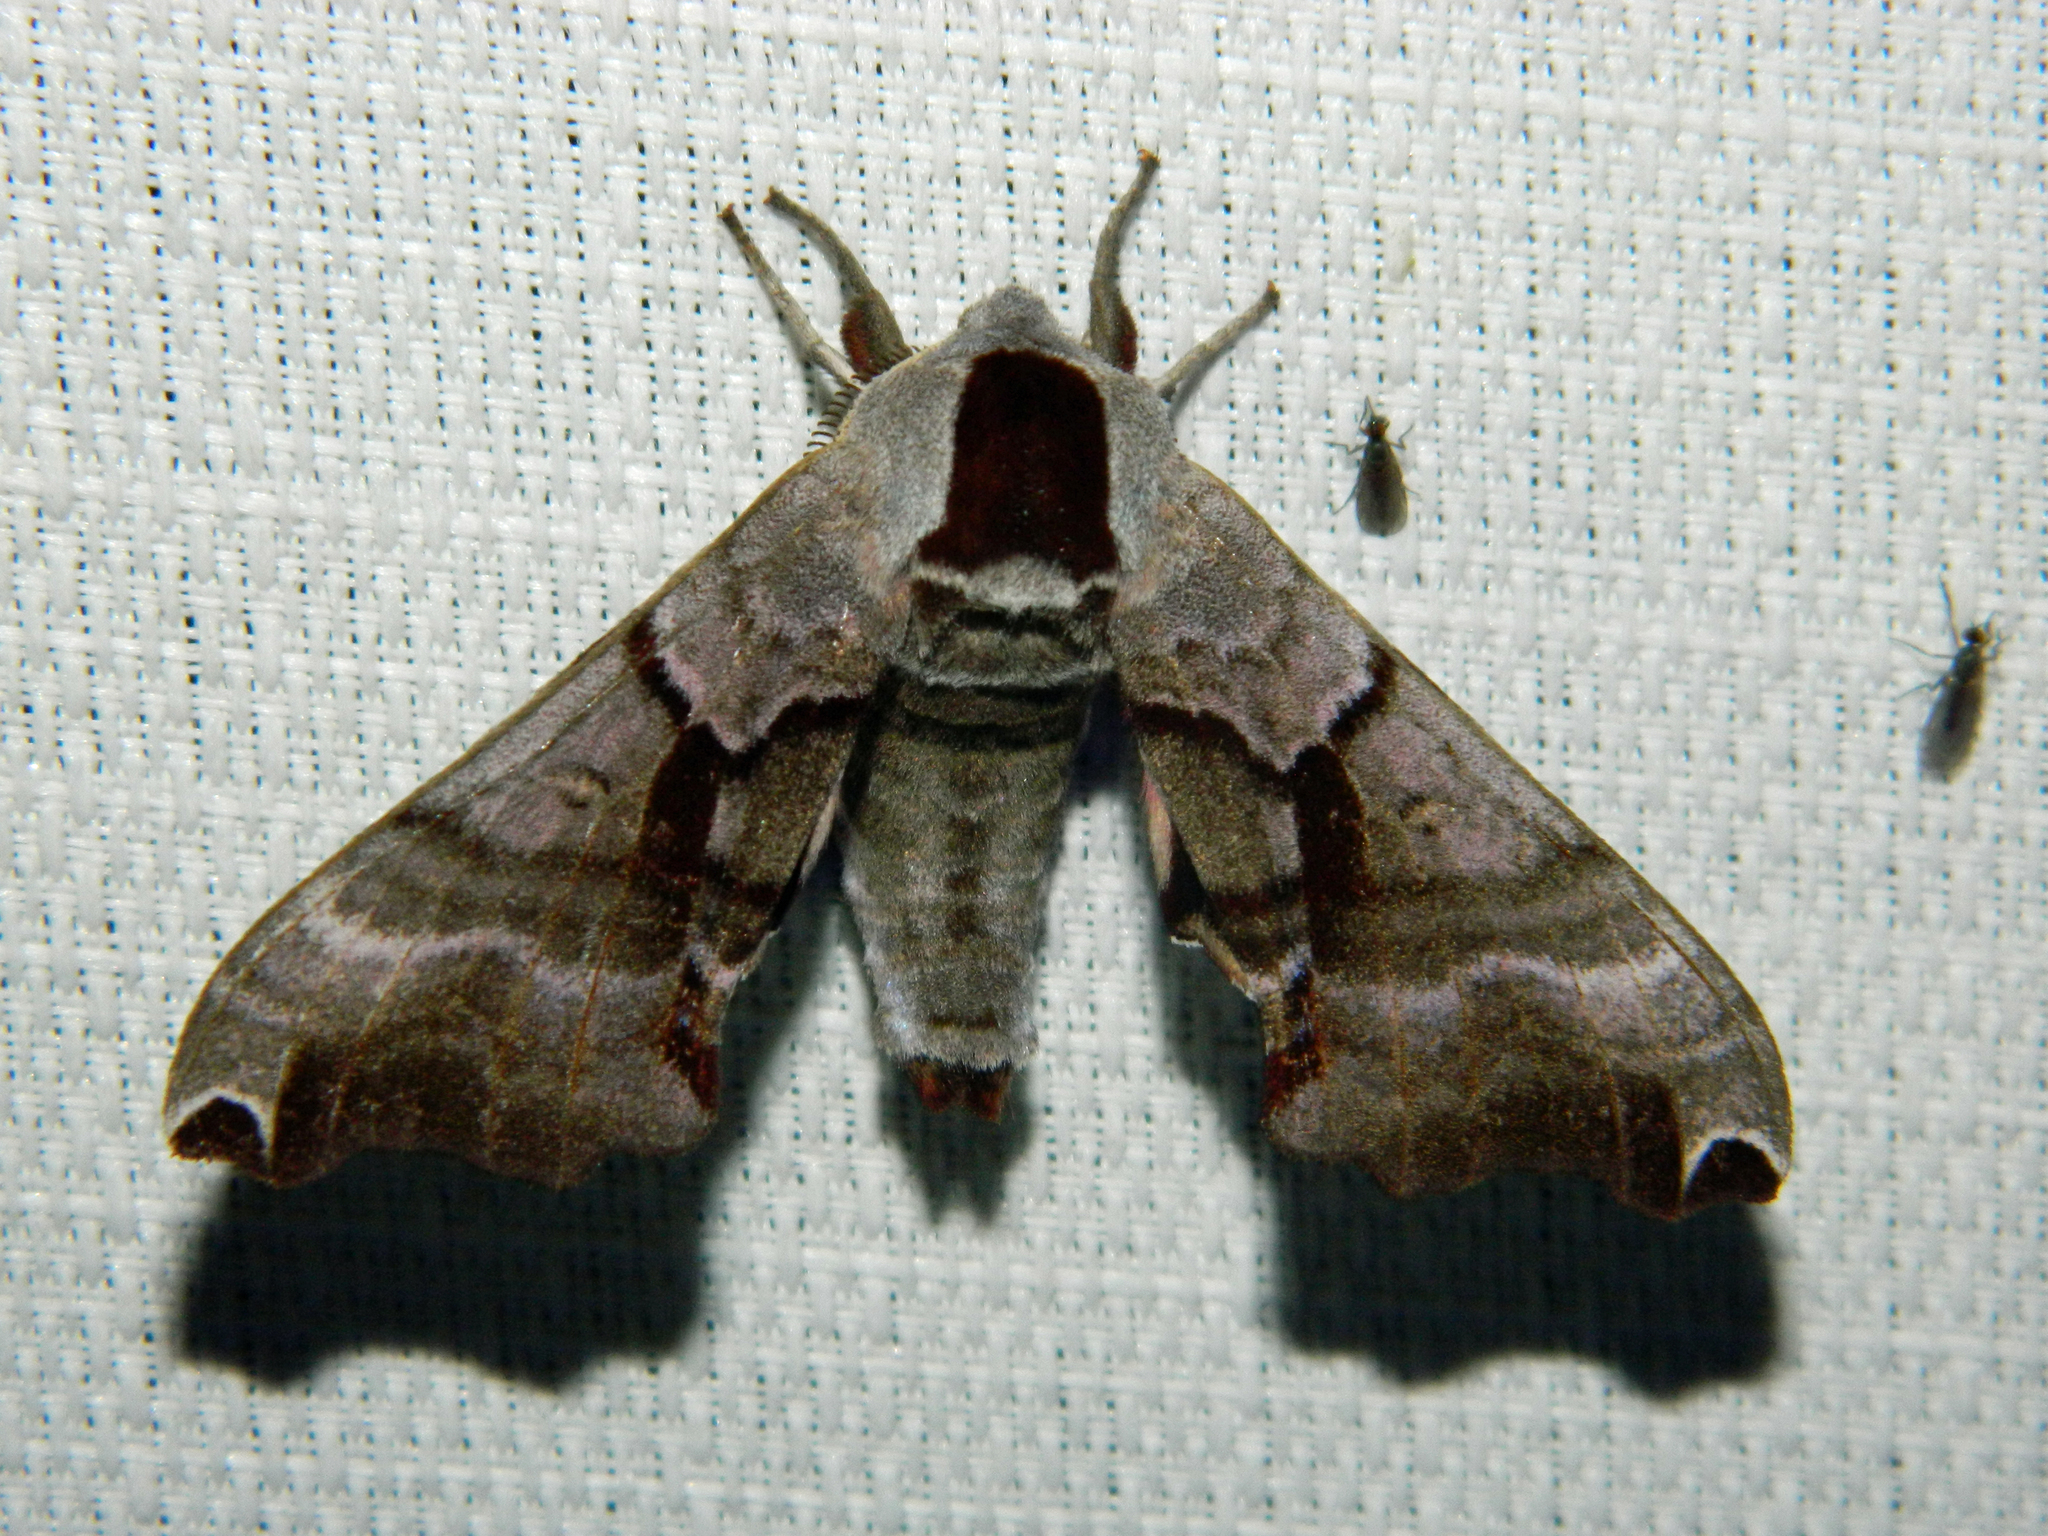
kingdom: Animalia
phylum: Arthropoda
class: Insecta
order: Lepidoptera
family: Sphingidae
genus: Smerinthus
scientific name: Smerinthus jamaicensis
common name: Twin spotted sphinx
